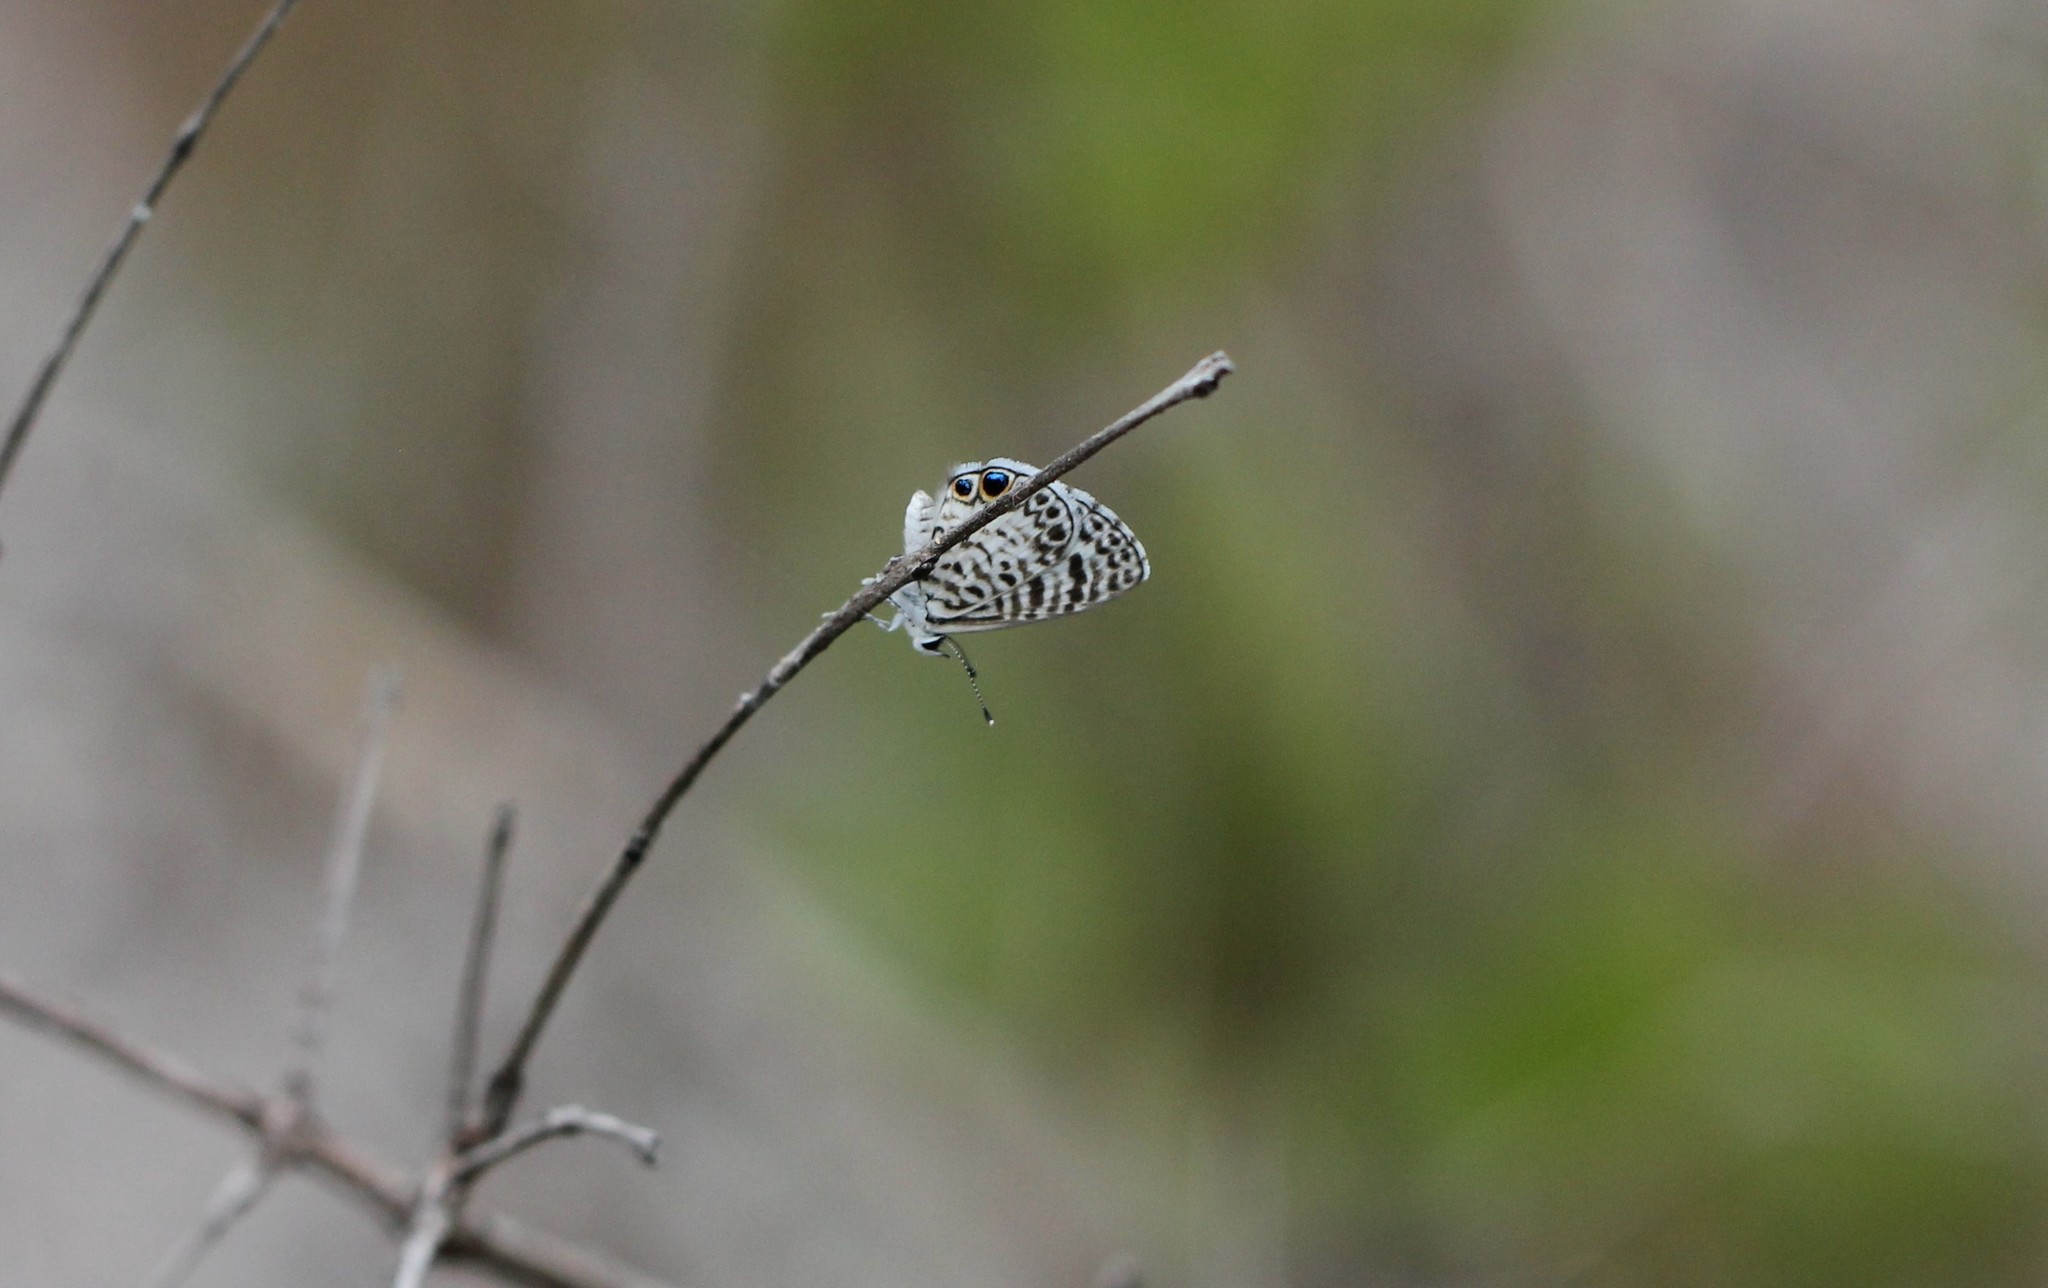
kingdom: Animalia
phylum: Arthropoda
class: Insecta
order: Lepidoptera
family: Lycaenidae
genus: Leptotes
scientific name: Leptotes cassius
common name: Cassius blue
